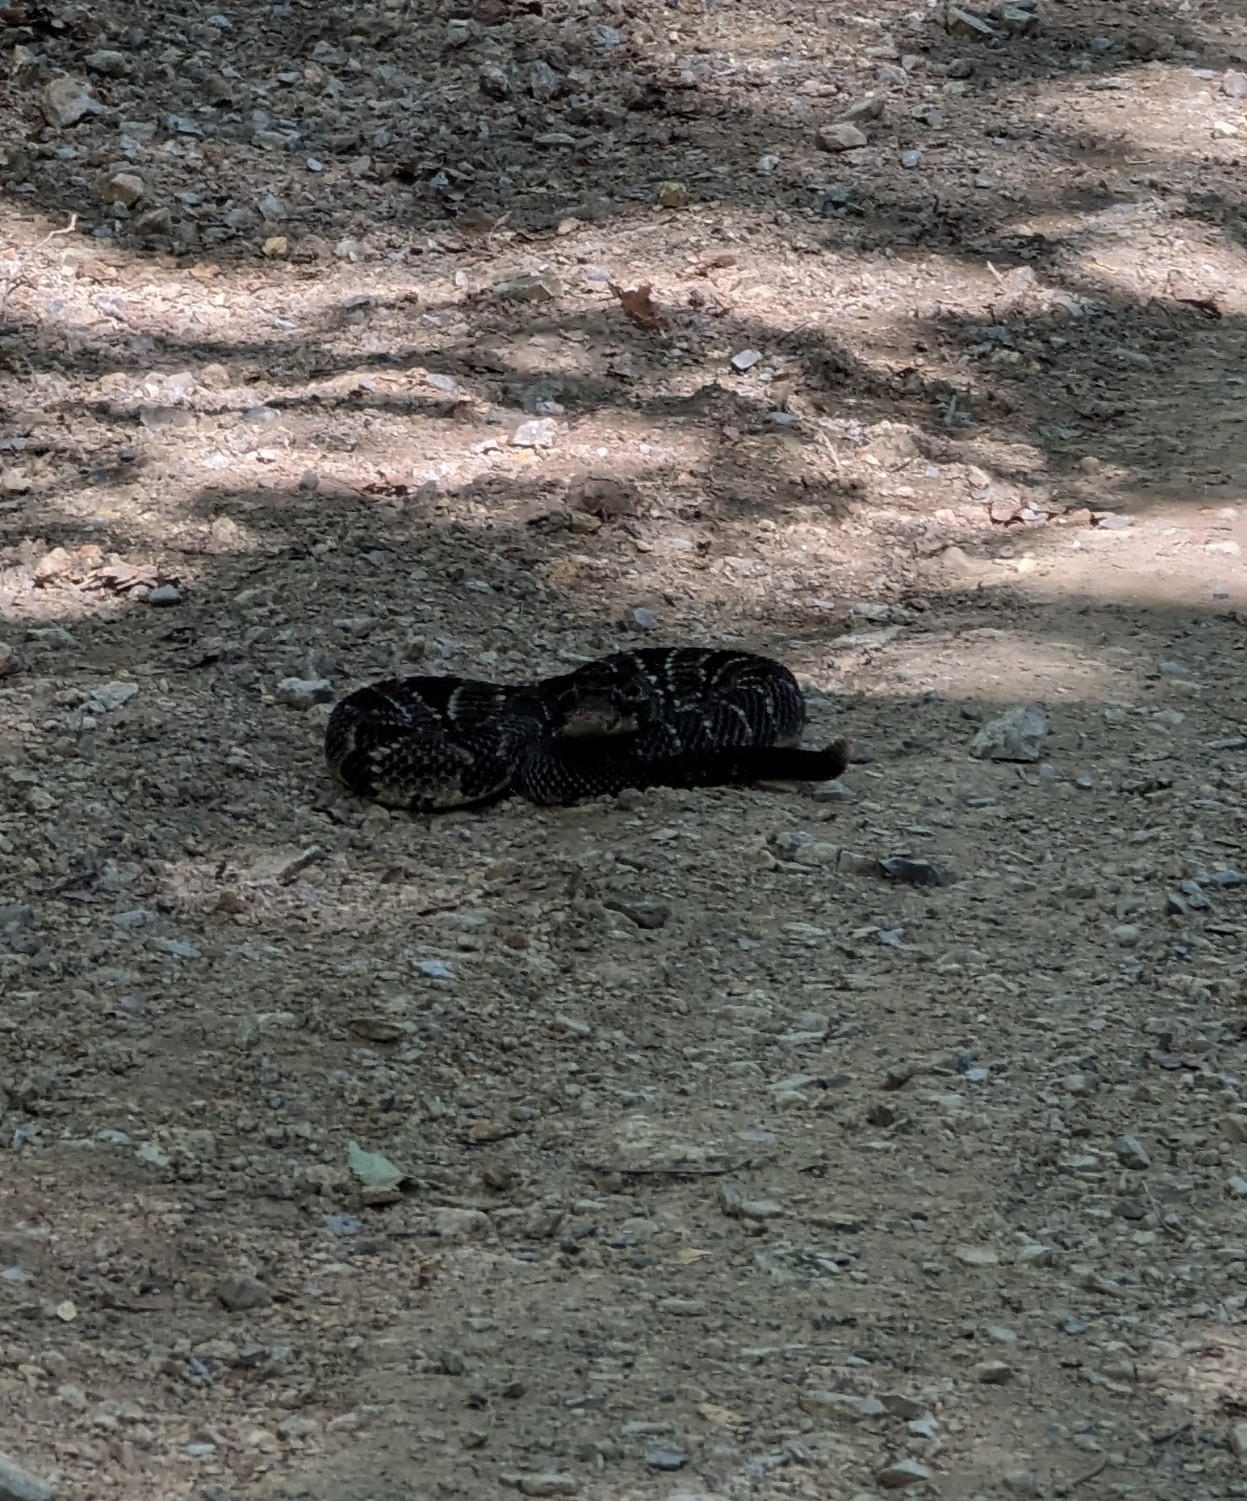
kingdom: Animalia
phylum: Chordata
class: Squamata
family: Viperidae
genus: Crotalus
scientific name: Crotalus horridus
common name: Timber rattlesnake
